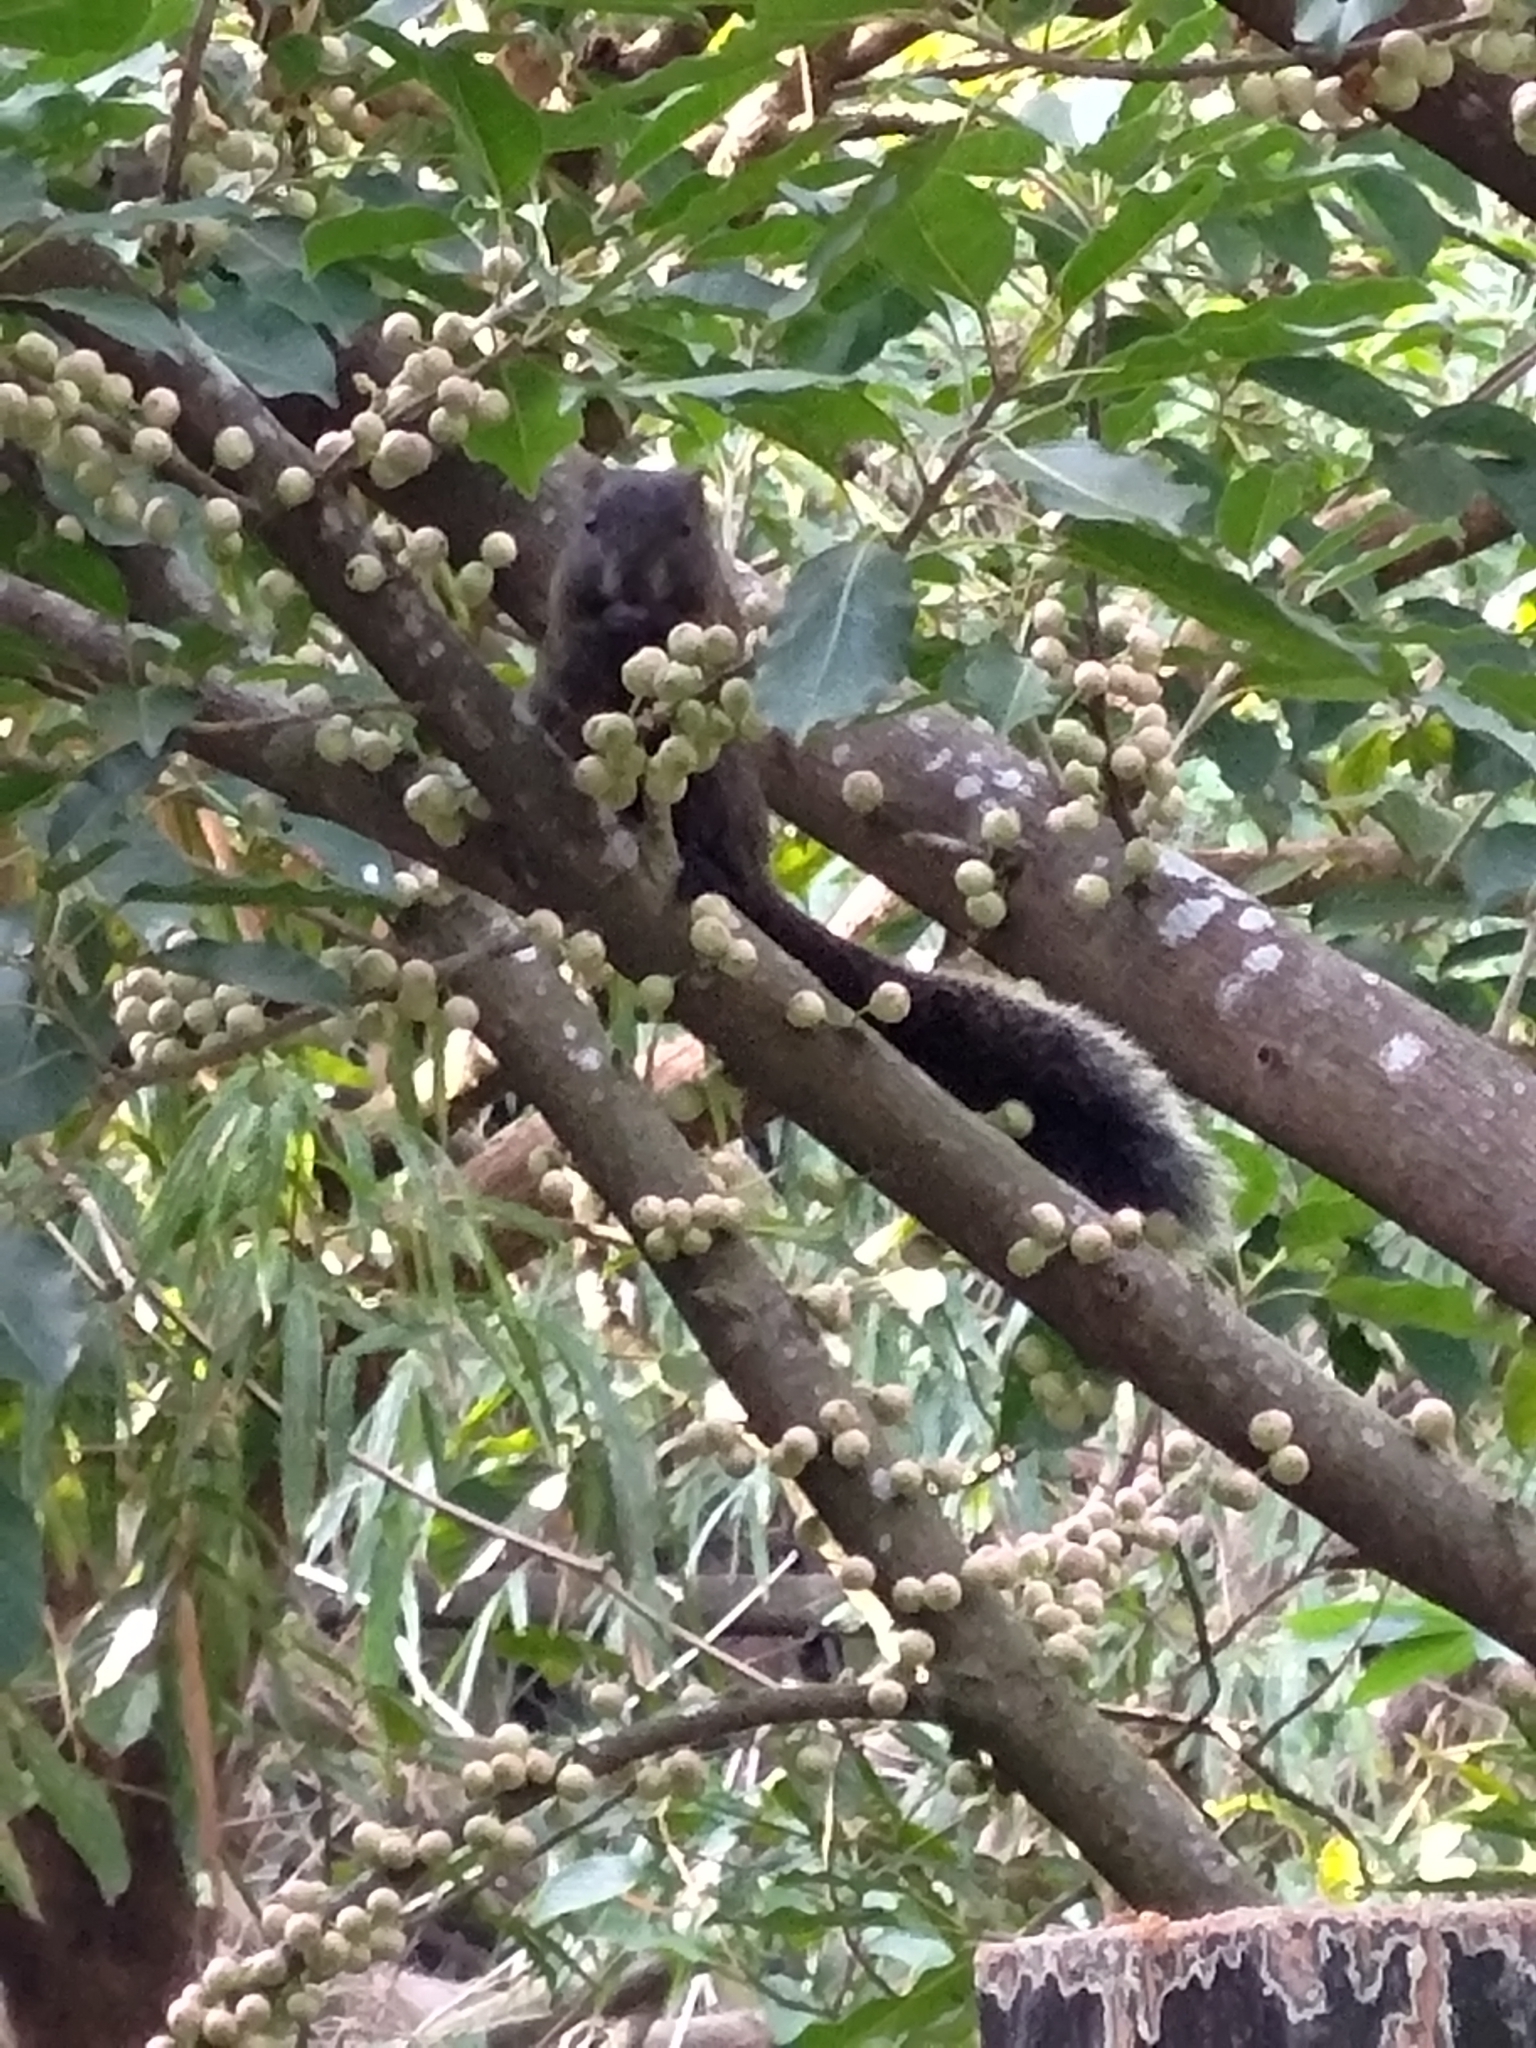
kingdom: Animalia
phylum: Chordata
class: Mammalia
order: Rodentia
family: Sciuridae
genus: Callosciurus
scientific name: Callosciurus erythraeus
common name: Pallas's squirrel
